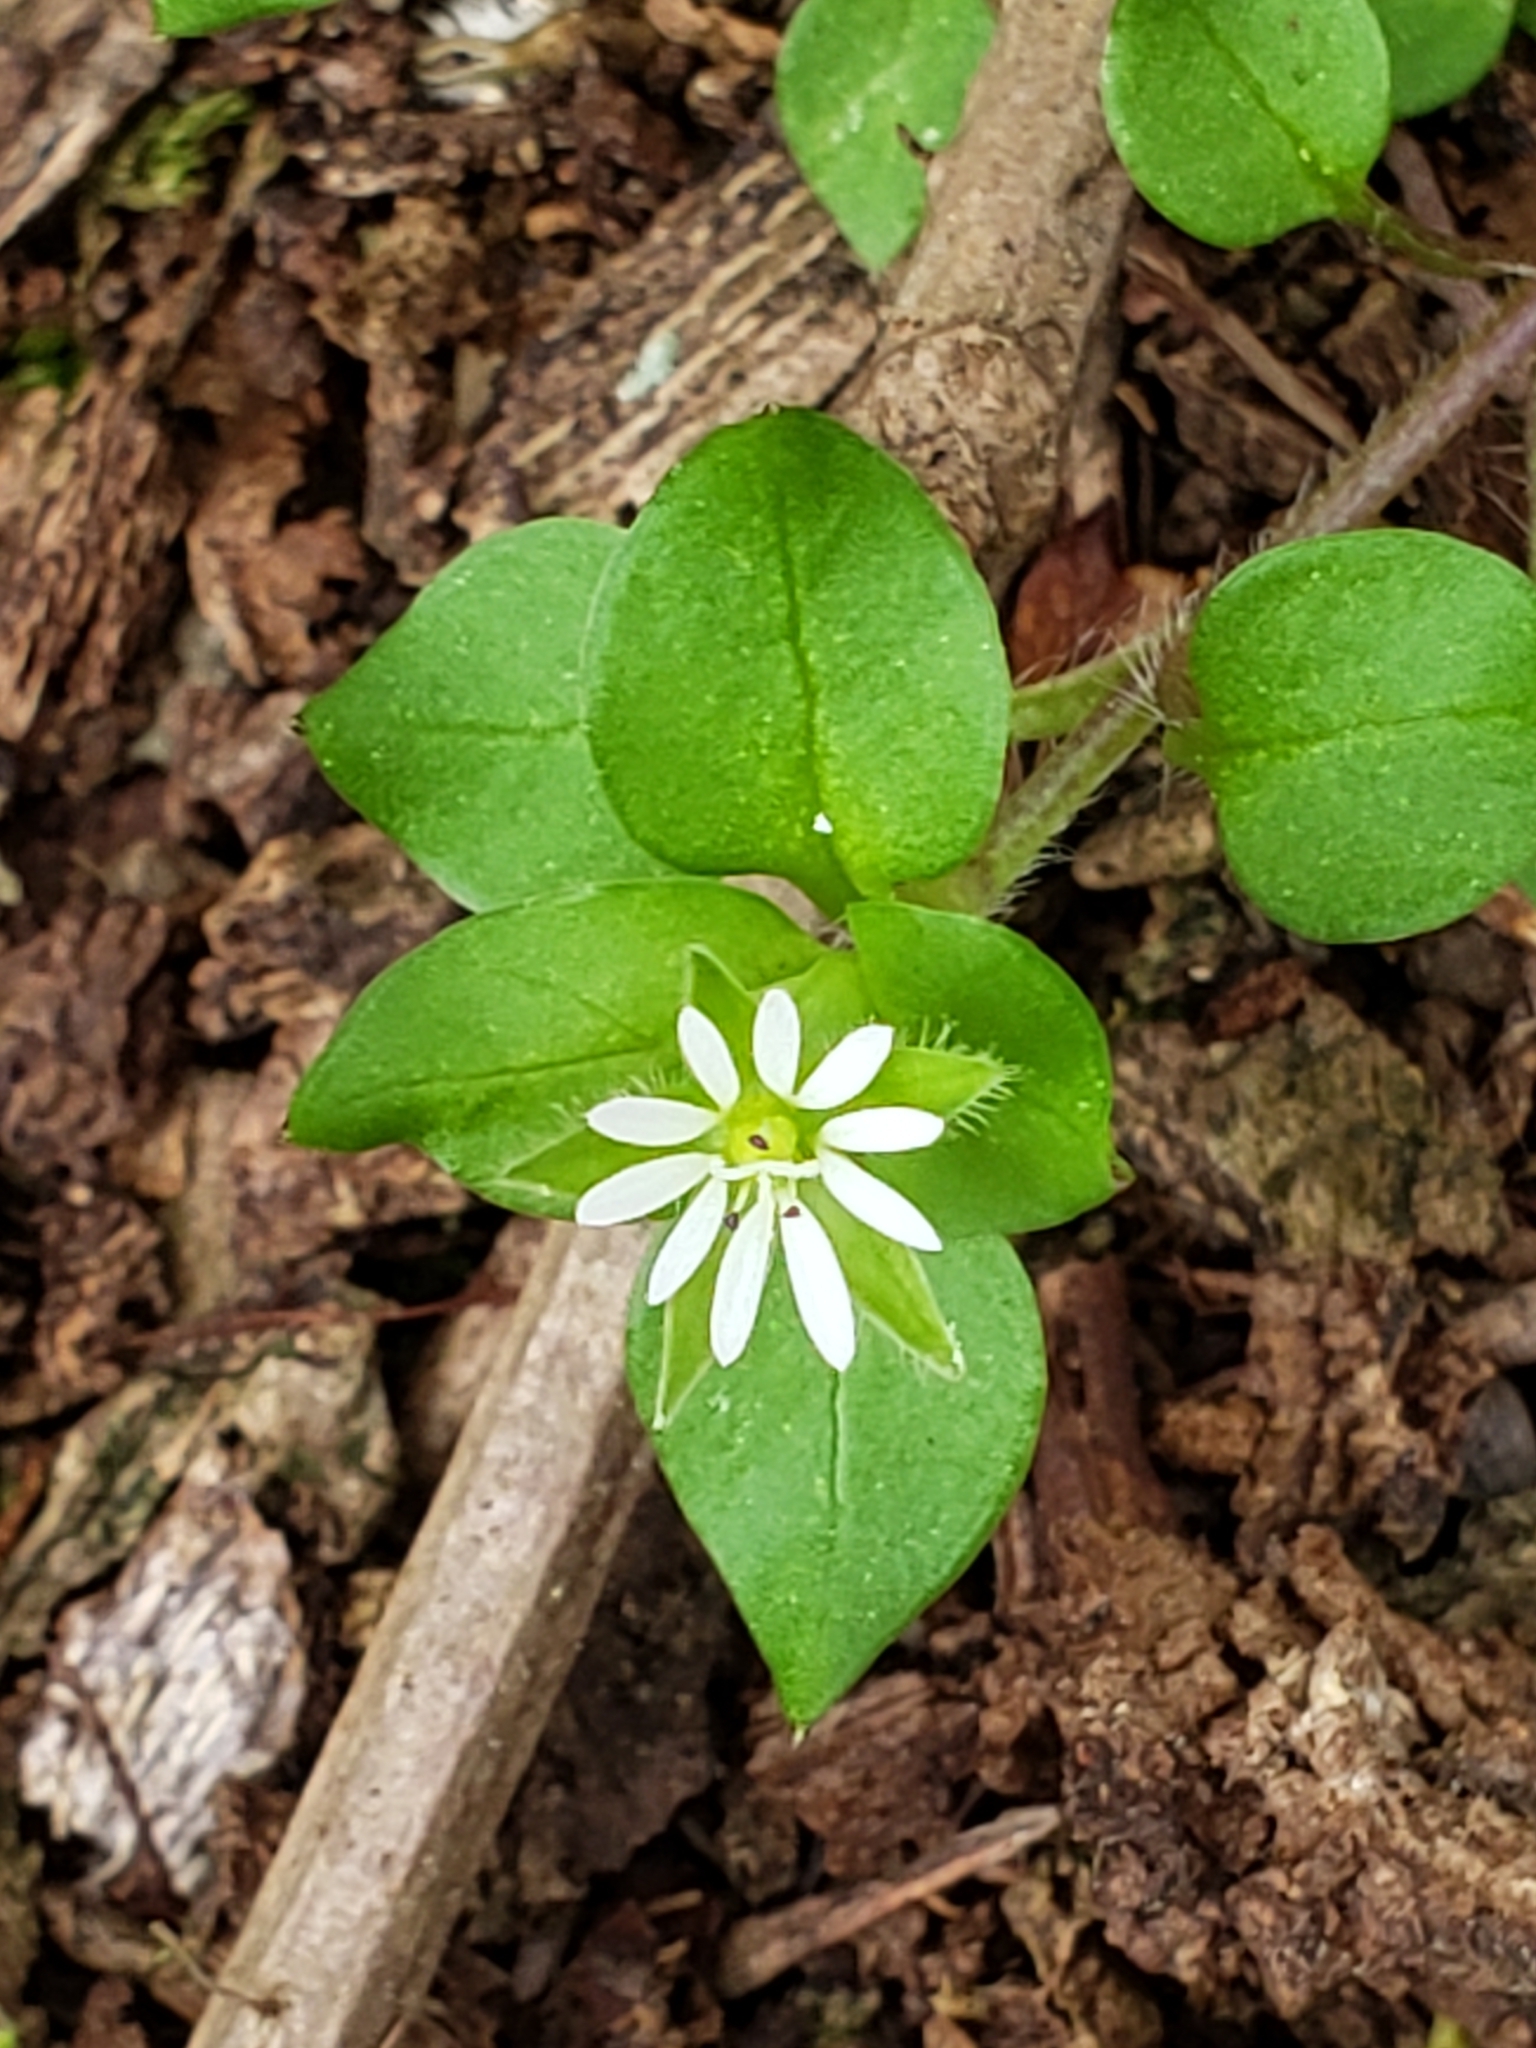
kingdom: Plantae
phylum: Tracheophyta
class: Magnoliopsida
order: Caryophyllales
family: Caryophyllaceae
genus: Stellaria
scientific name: Stellaria media
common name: Common chickweed
